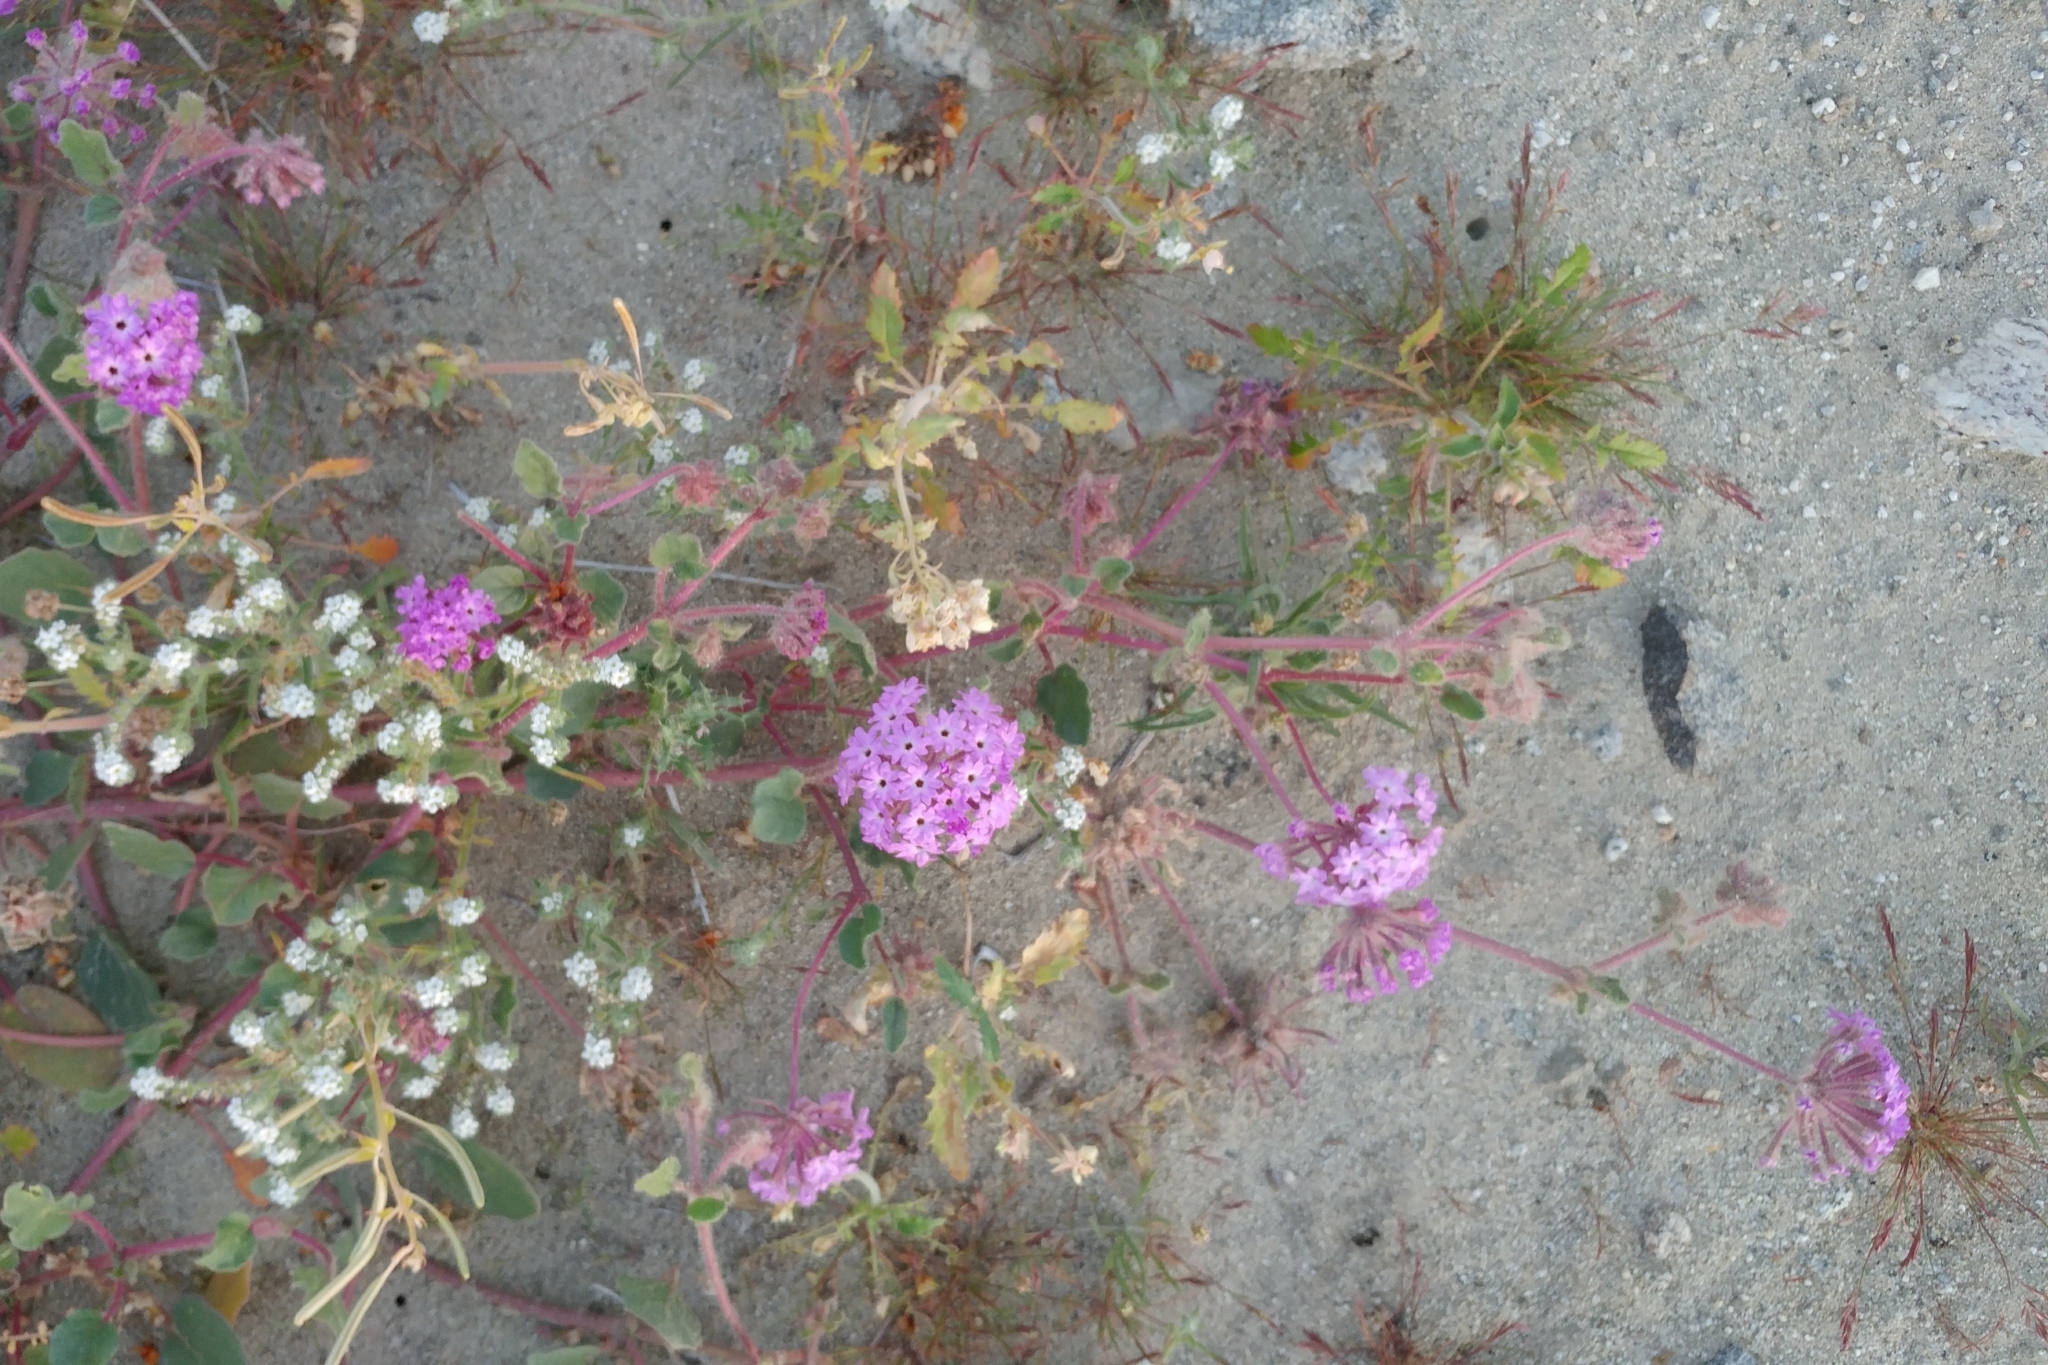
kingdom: Plantae
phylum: Tracheophyta
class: Magnoliopsida
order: Caryophyllales
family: Nyctaginaceae
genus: Abronia
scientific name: Abronia villosa
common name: Desert sand-verbena
